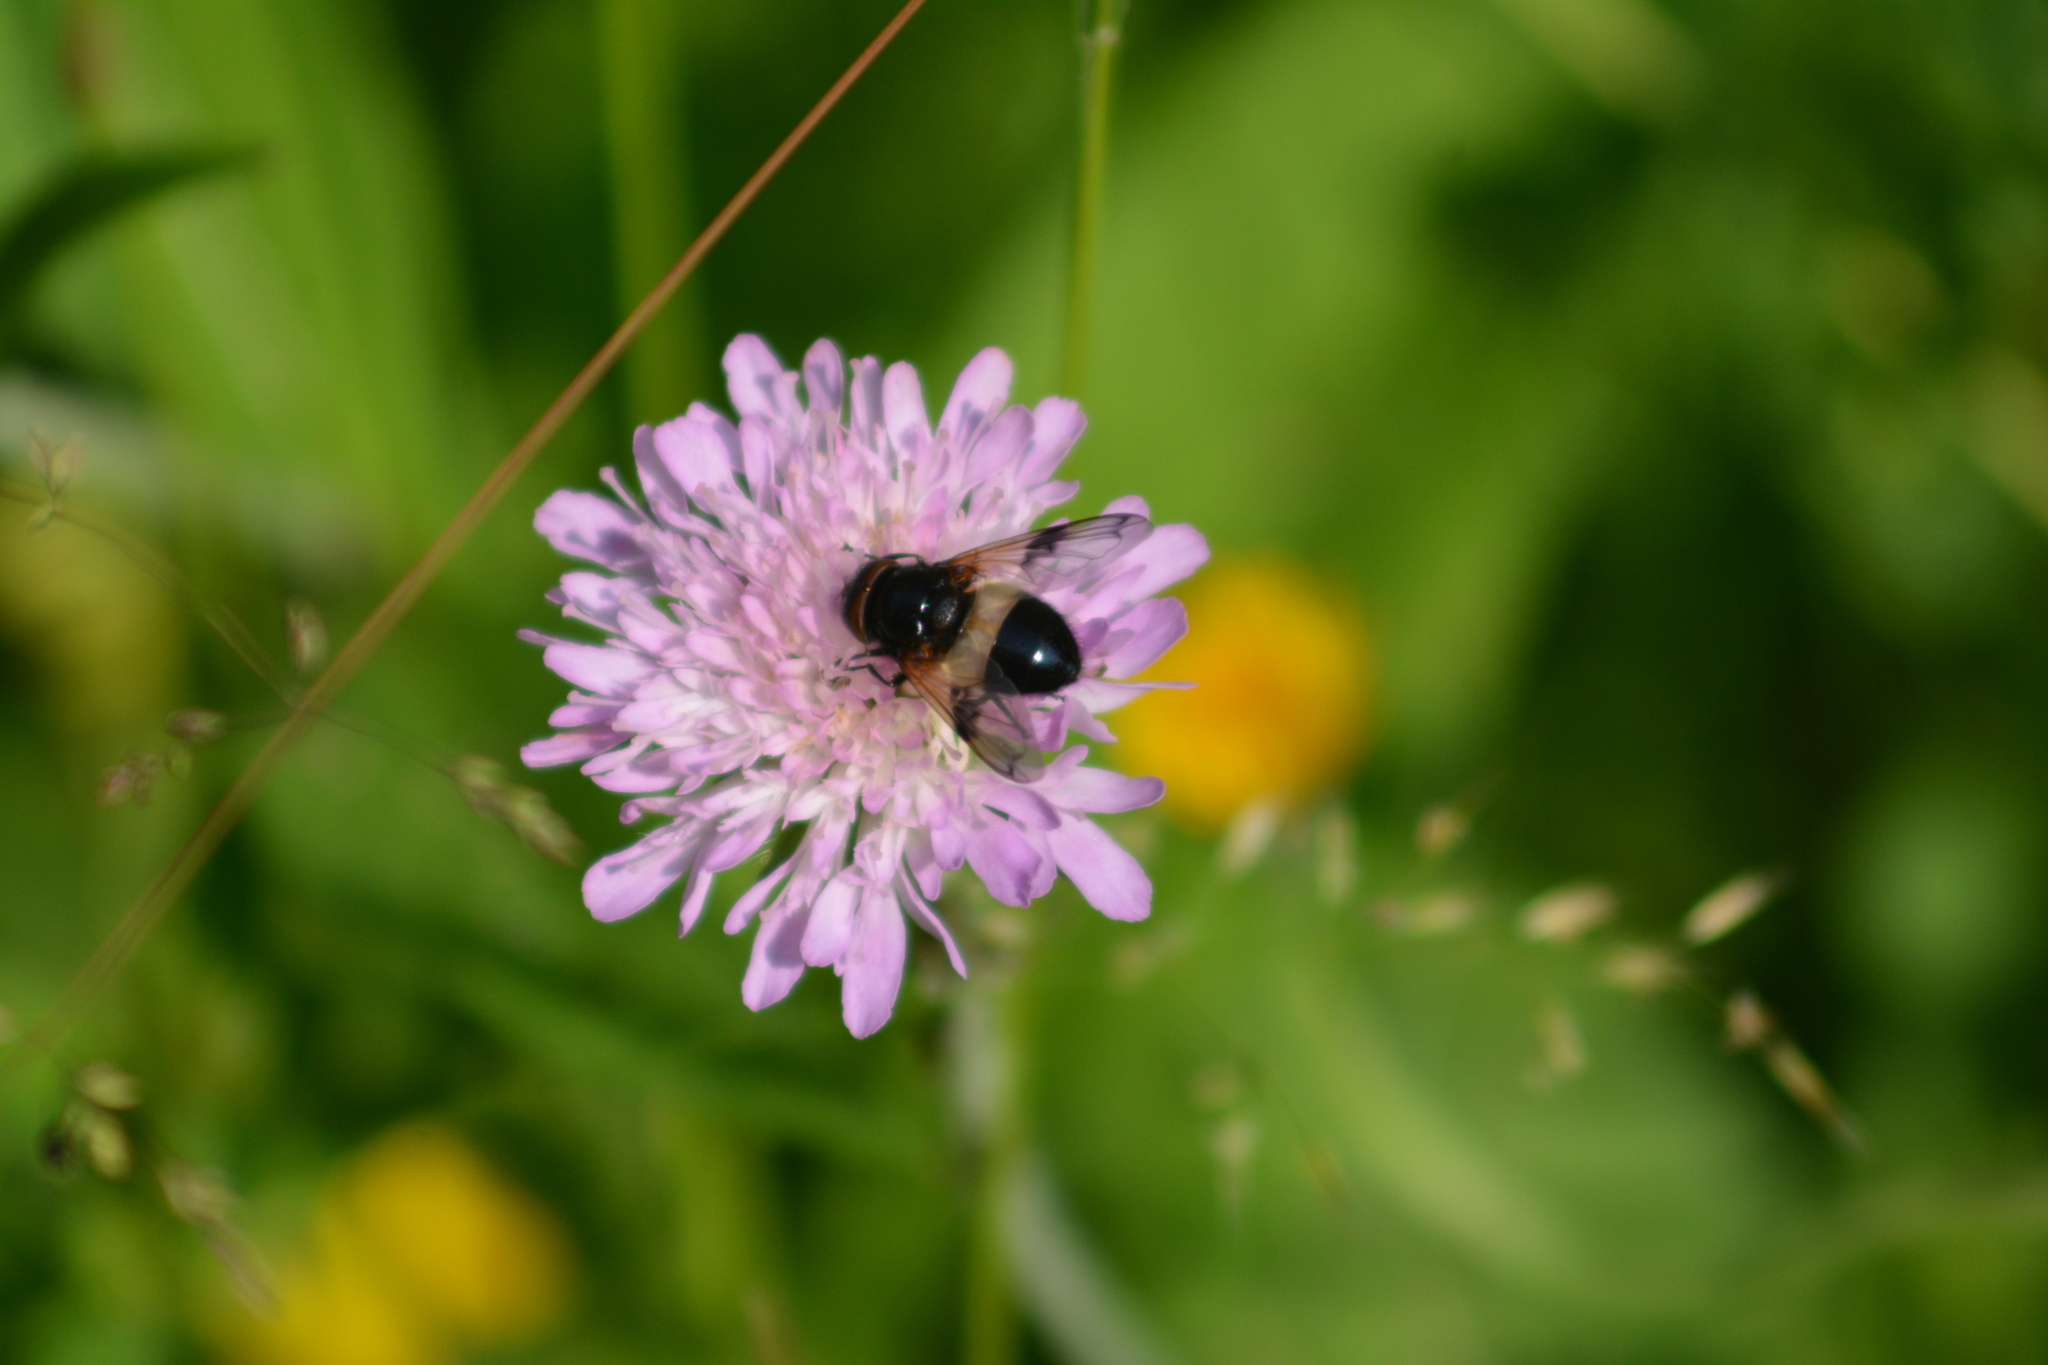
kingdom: Animalia
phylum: Arthropoda
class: Insecta
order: Diptera
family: Syrphidae
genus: Volucella
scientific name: Volucella pellucens
